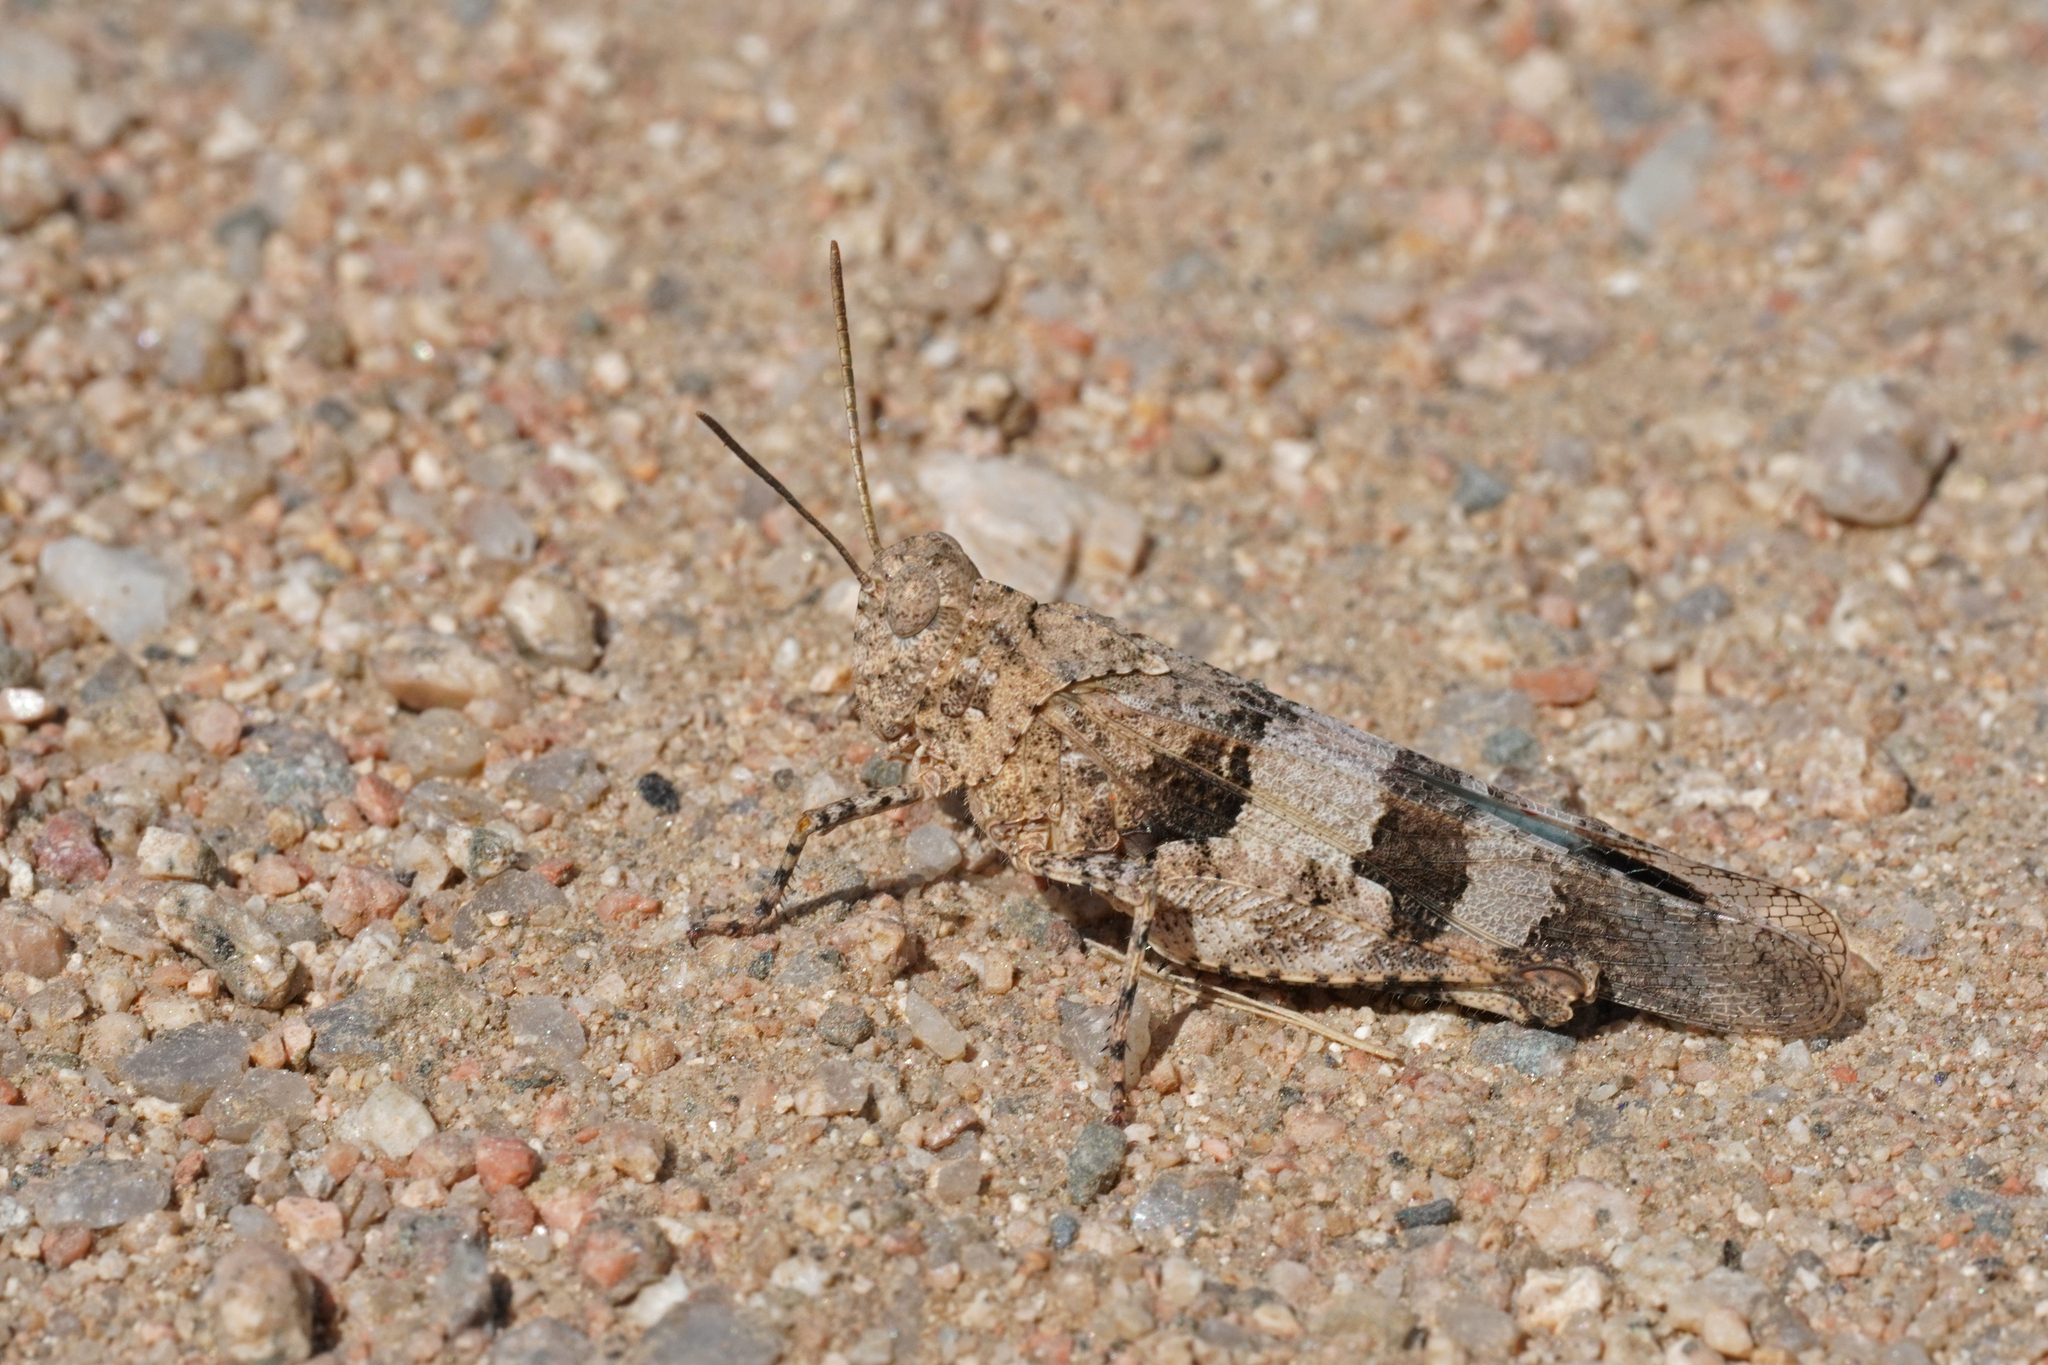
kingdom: Animalia
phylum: Arthropoda
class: Insecta
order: Orthoptera
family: Acrididae
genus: Oedipoda
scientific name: Oedipoda caerulescens
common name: Blue-winged grasshopper
